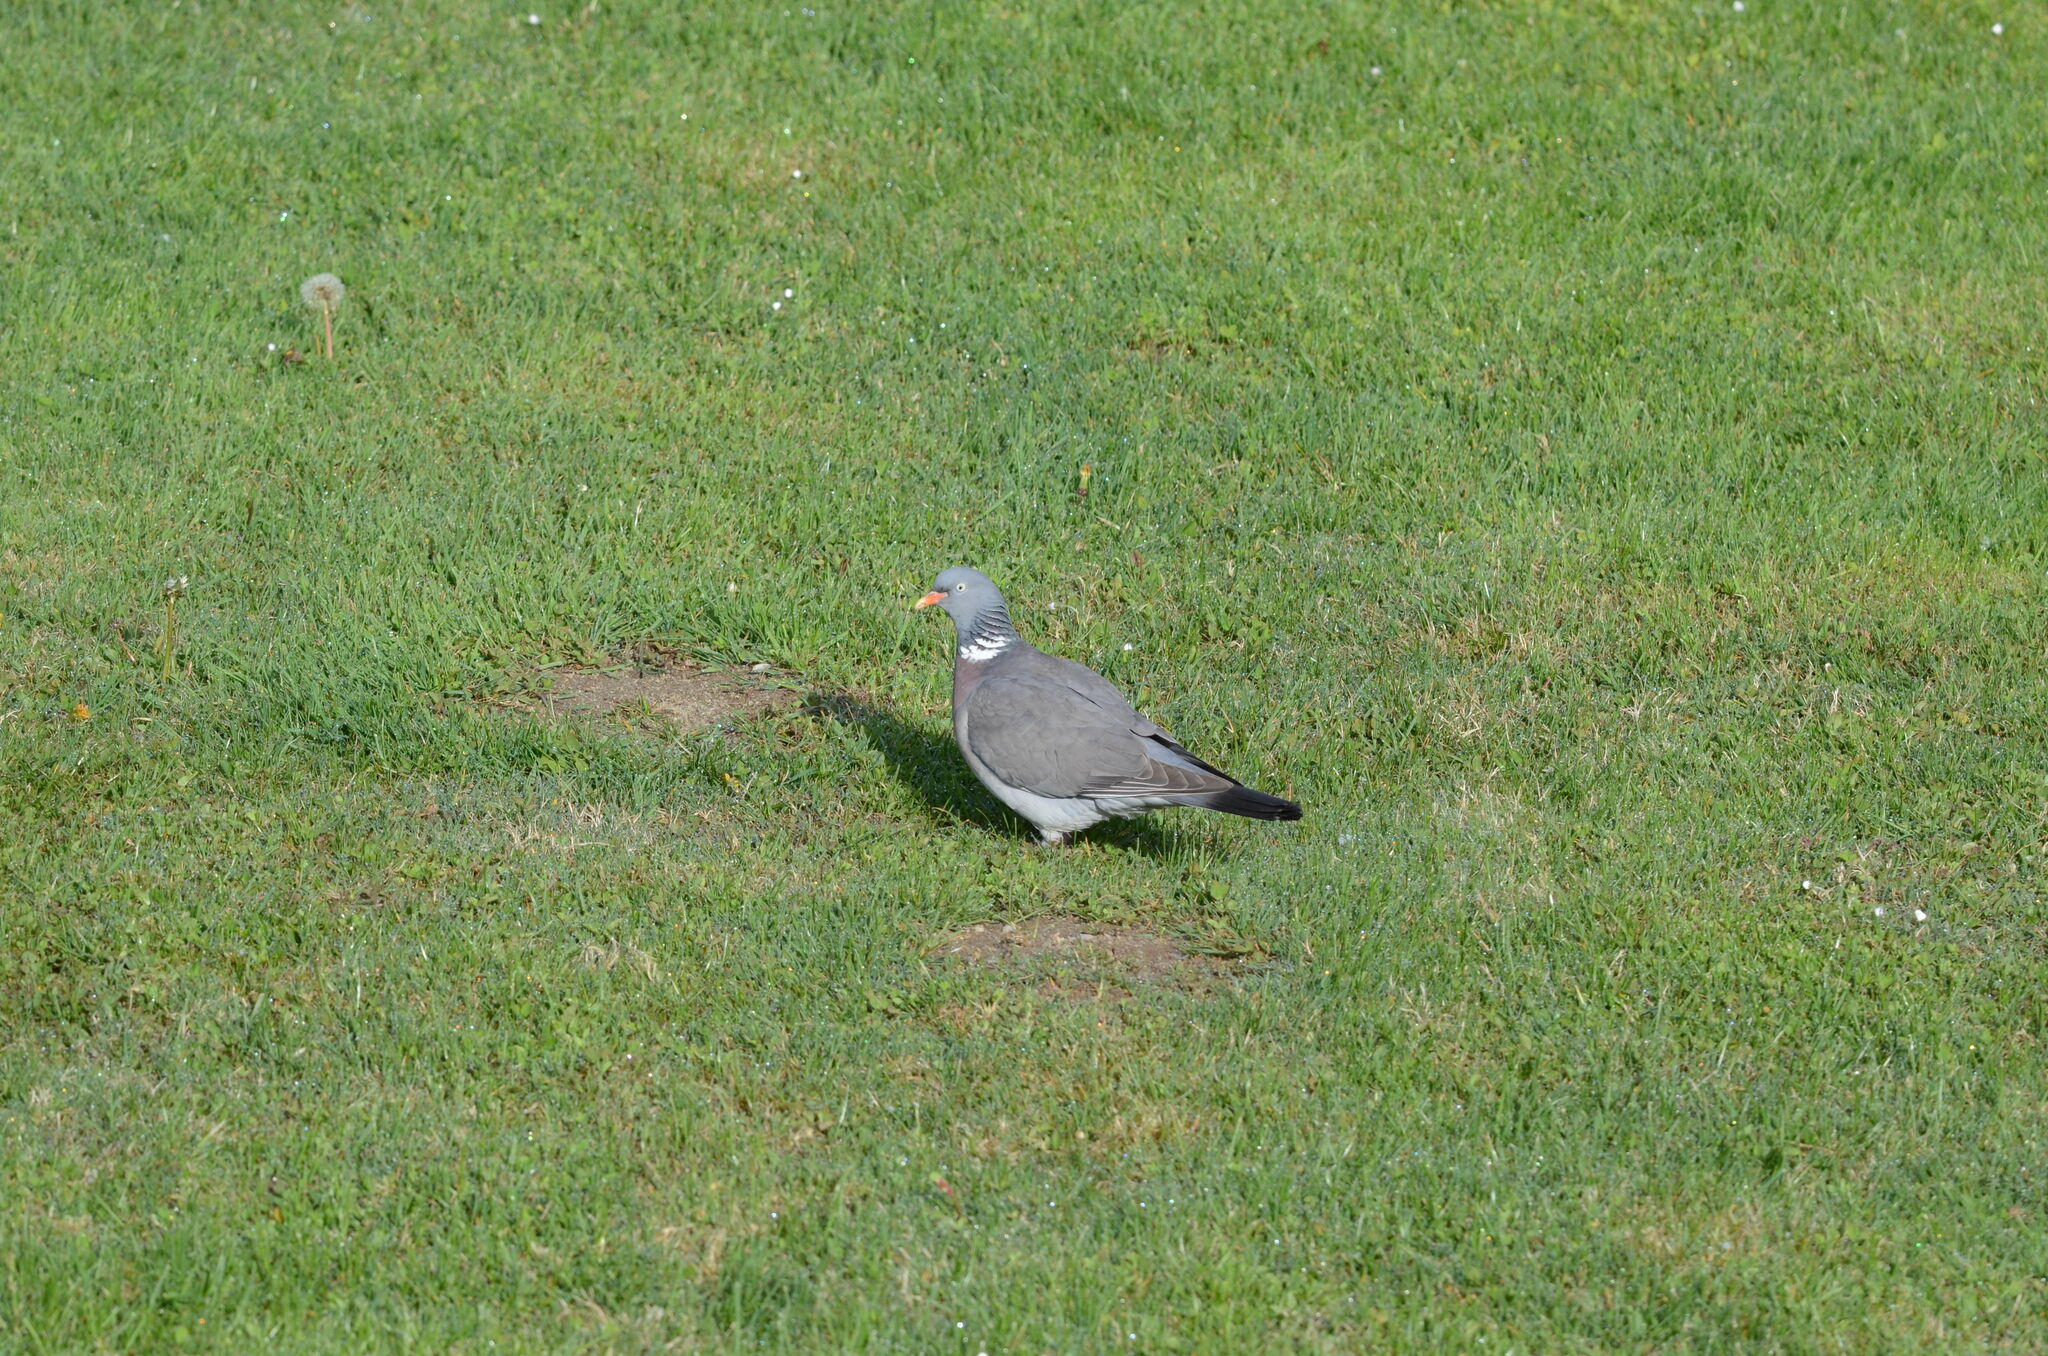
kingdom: Animalia
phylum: Chordata
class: Aves
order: Columbiformes
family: Columbidae
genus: Columba
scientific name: Columba palumbus
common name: Common wood pigeon
